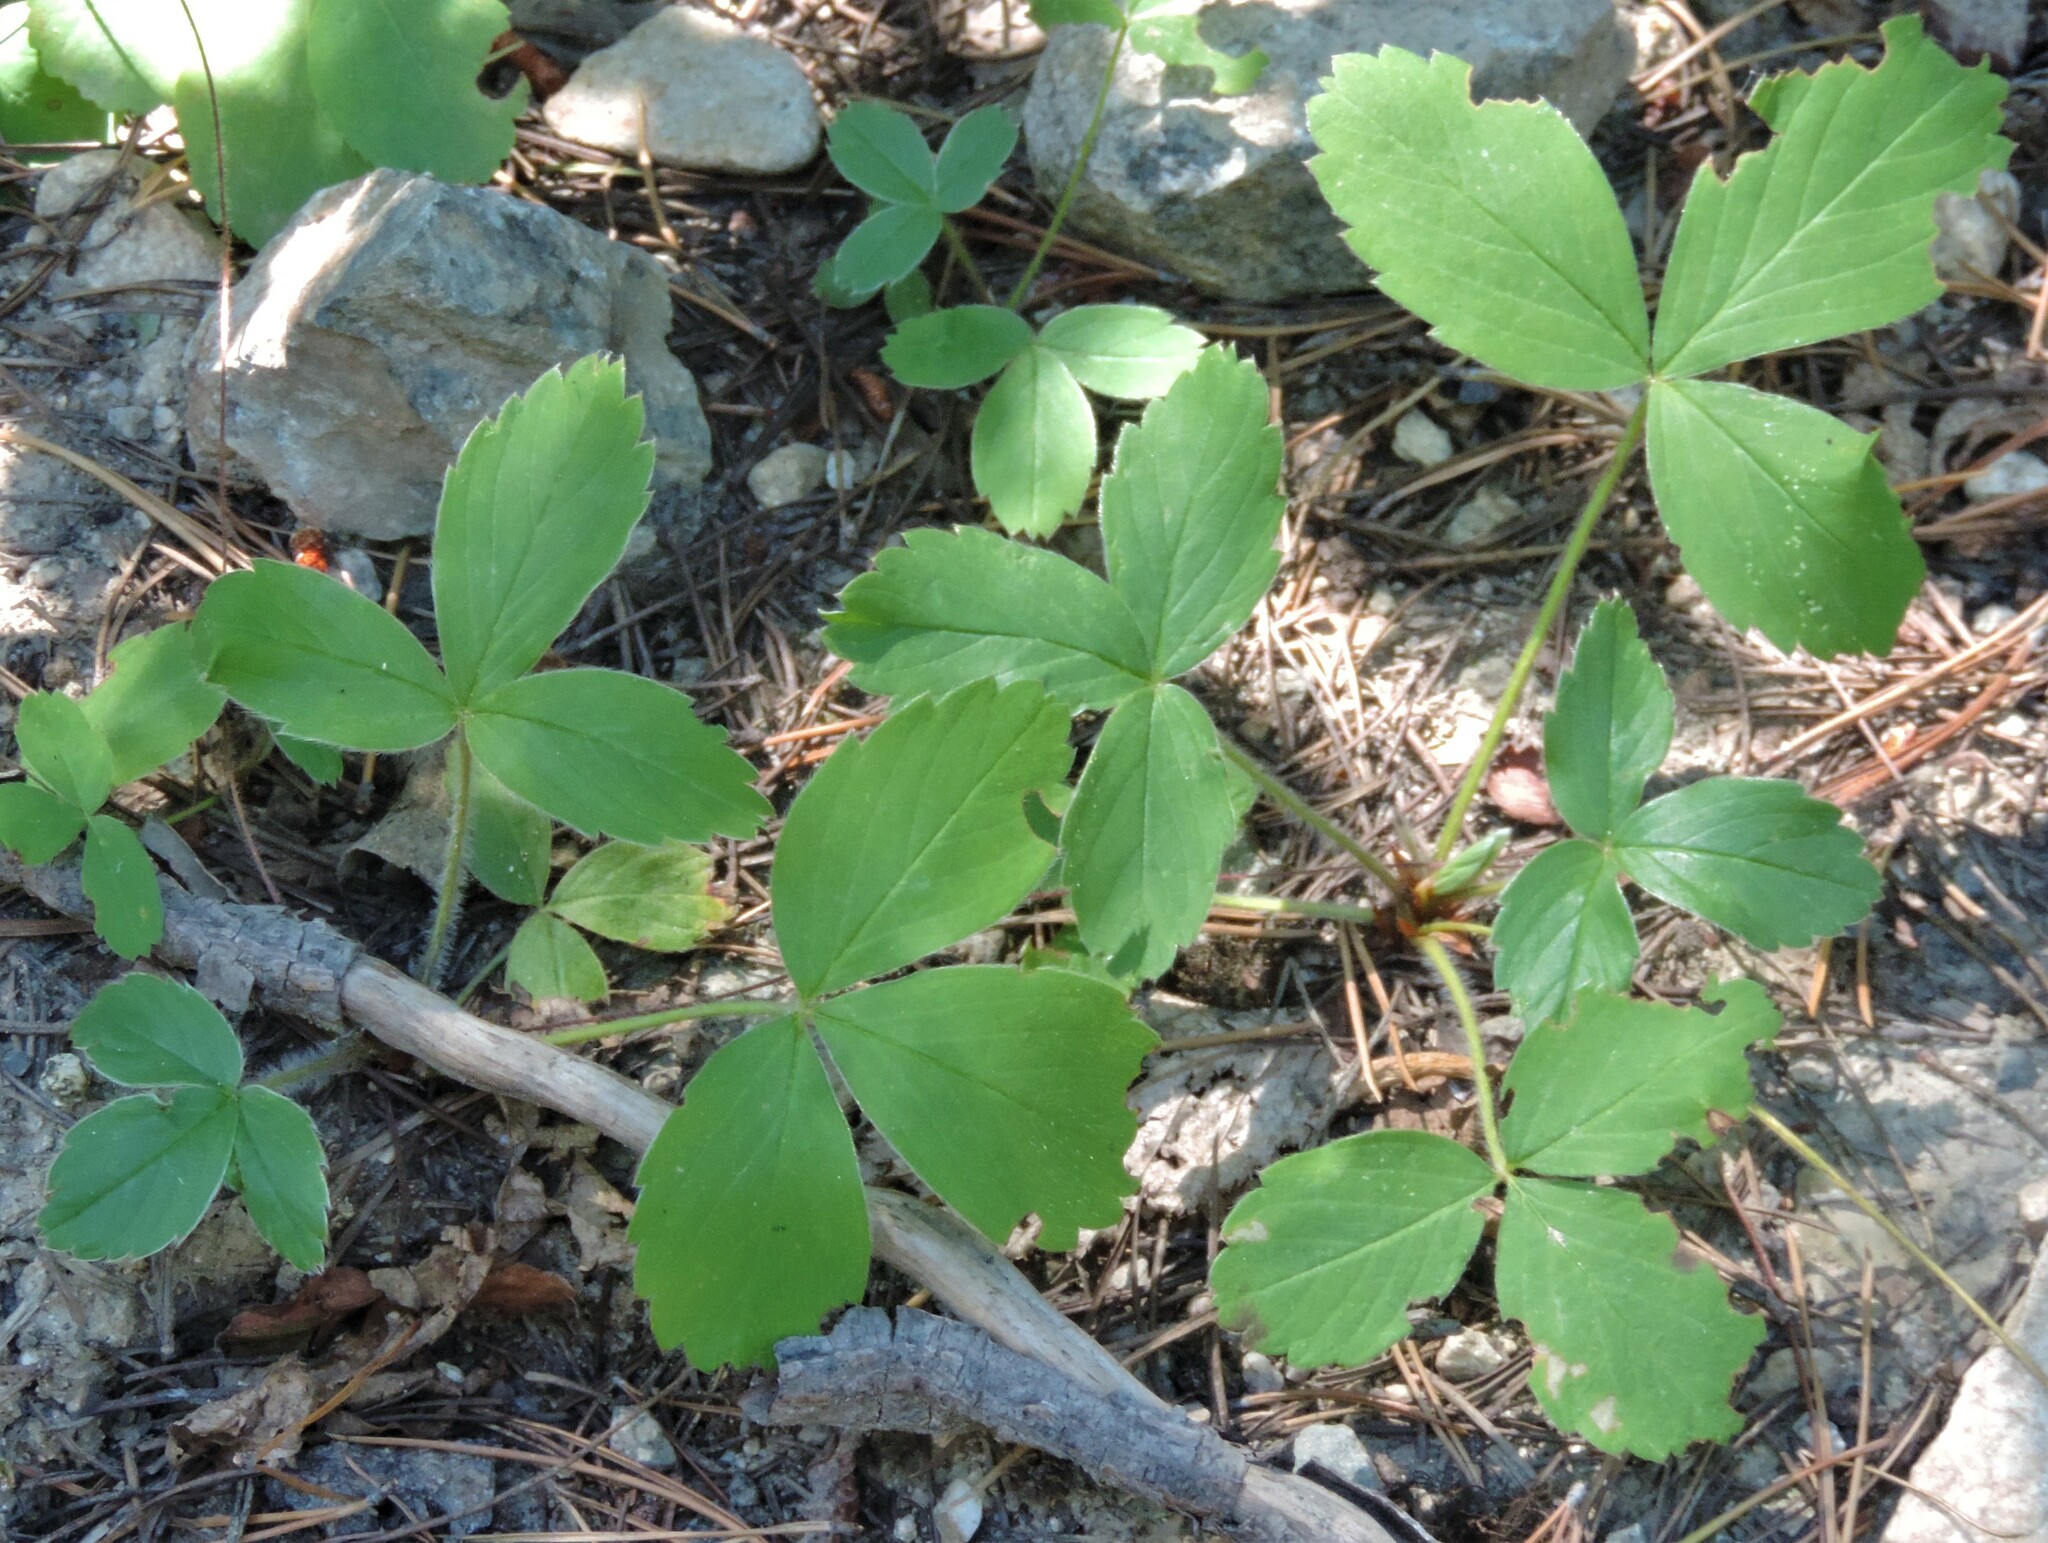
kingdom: Plantae
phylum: Tracheophyta
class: Magnoliopsida
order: Rosales
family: Rosaceae
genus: Fragaria
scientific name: Fragaria virginiana
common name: Thickleaved wild strawberry
